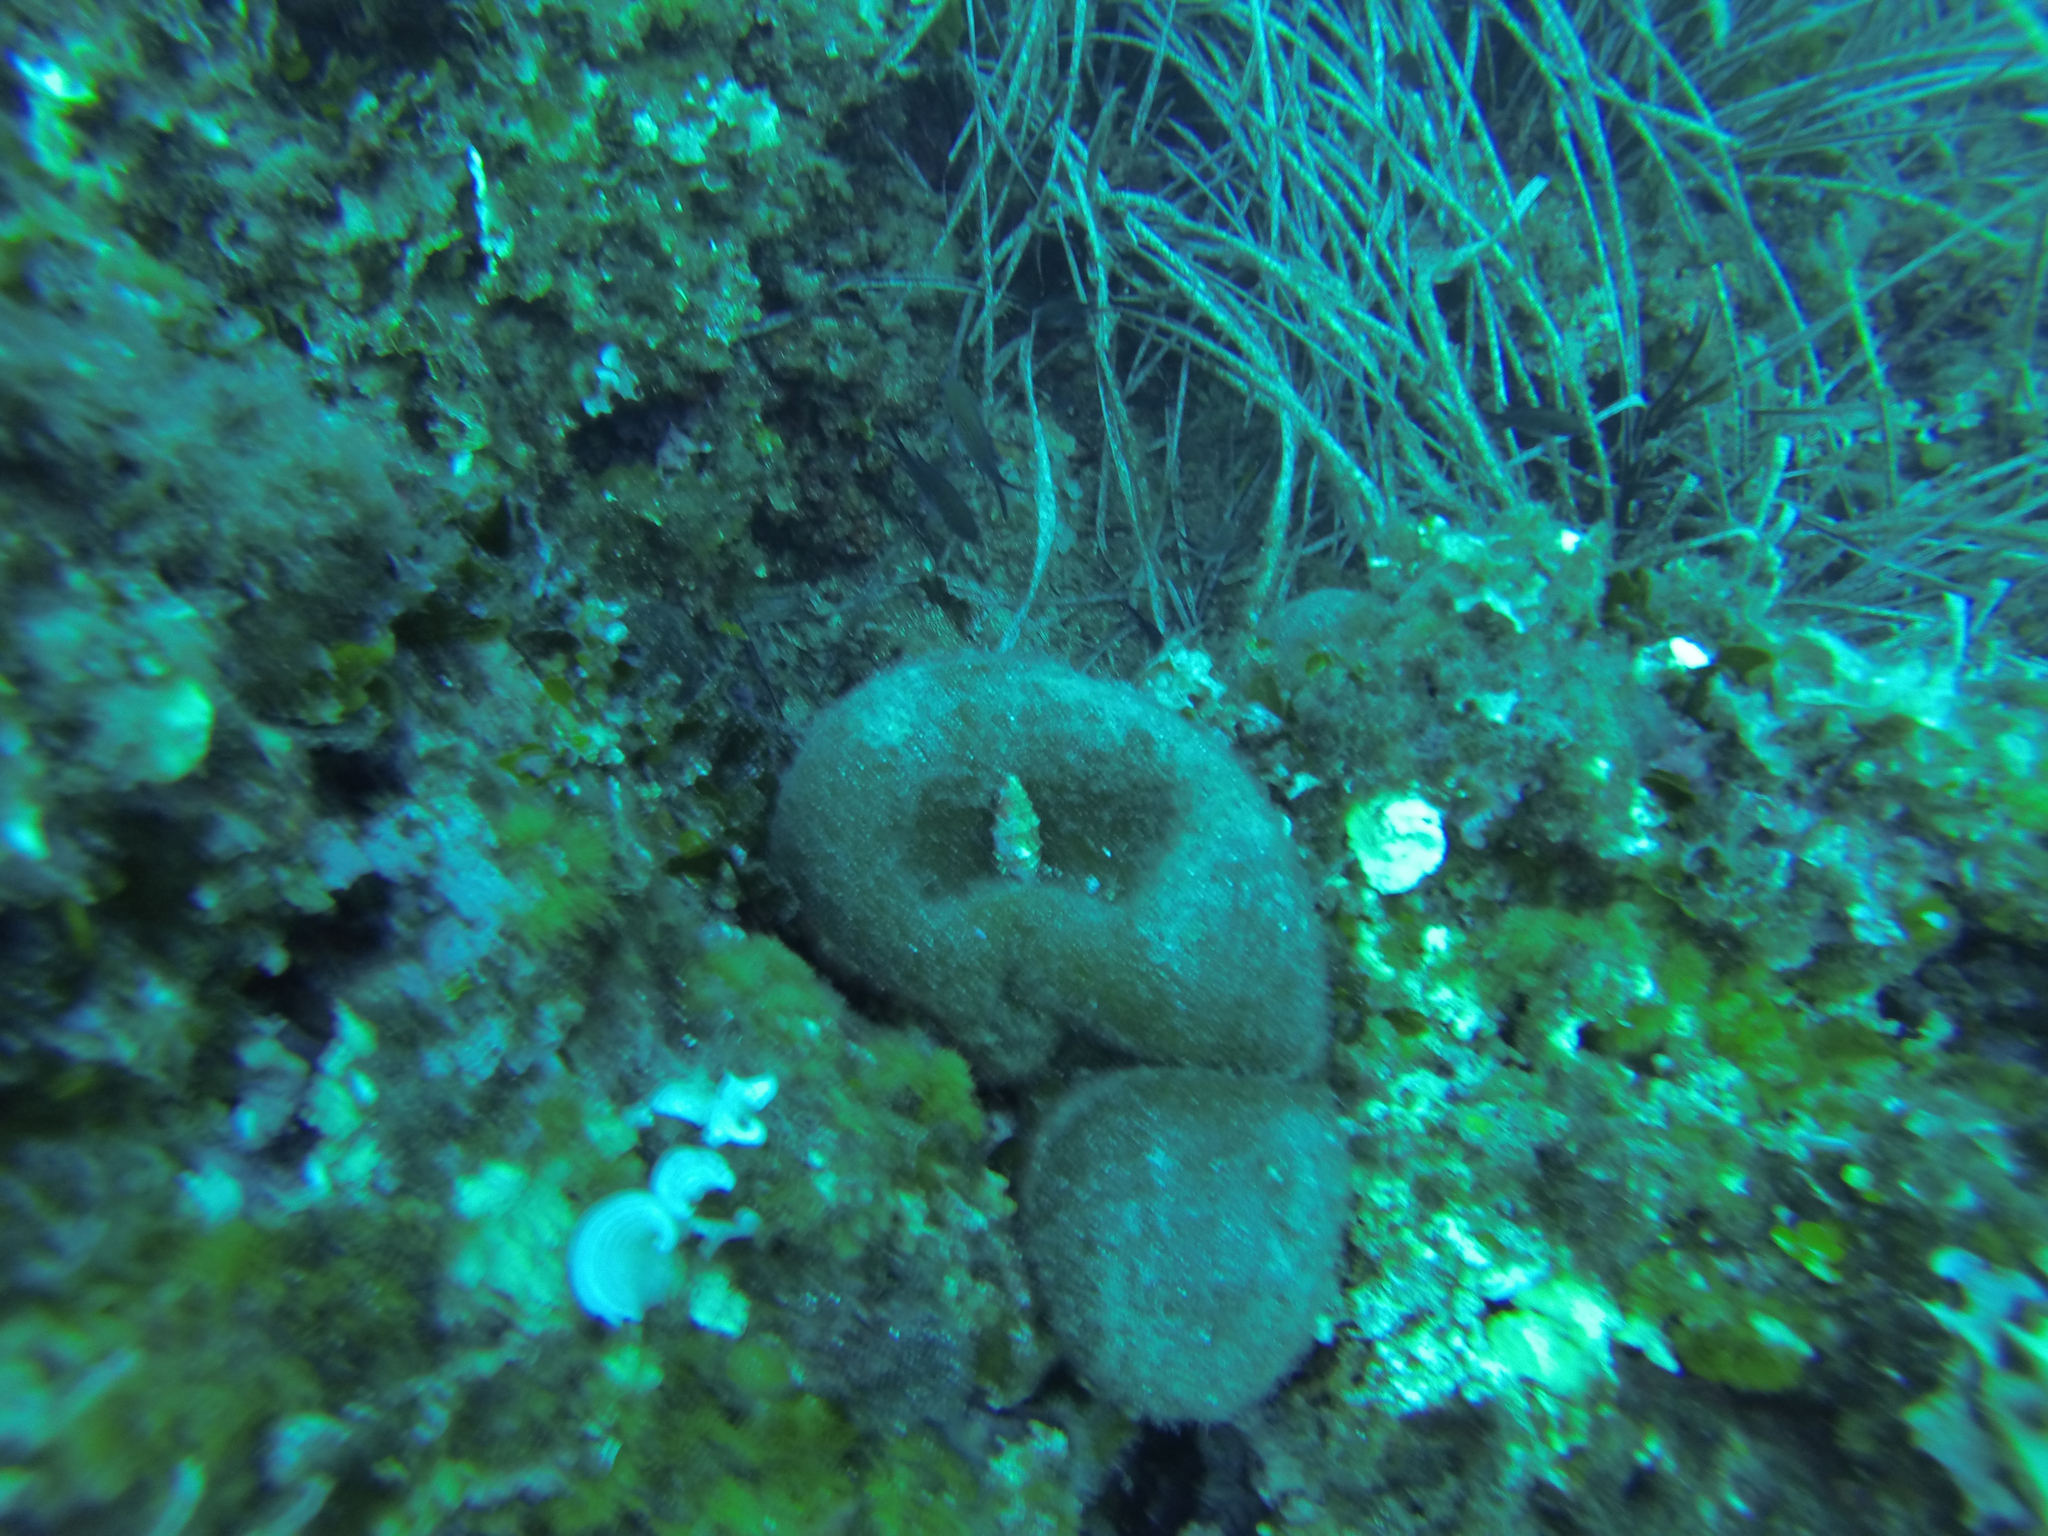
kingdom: Plantae
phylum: Chlorophyta
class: Ulvophyceae
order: Bryopsidales
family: Codiaceae
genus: Codium
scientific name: Codium bursa
